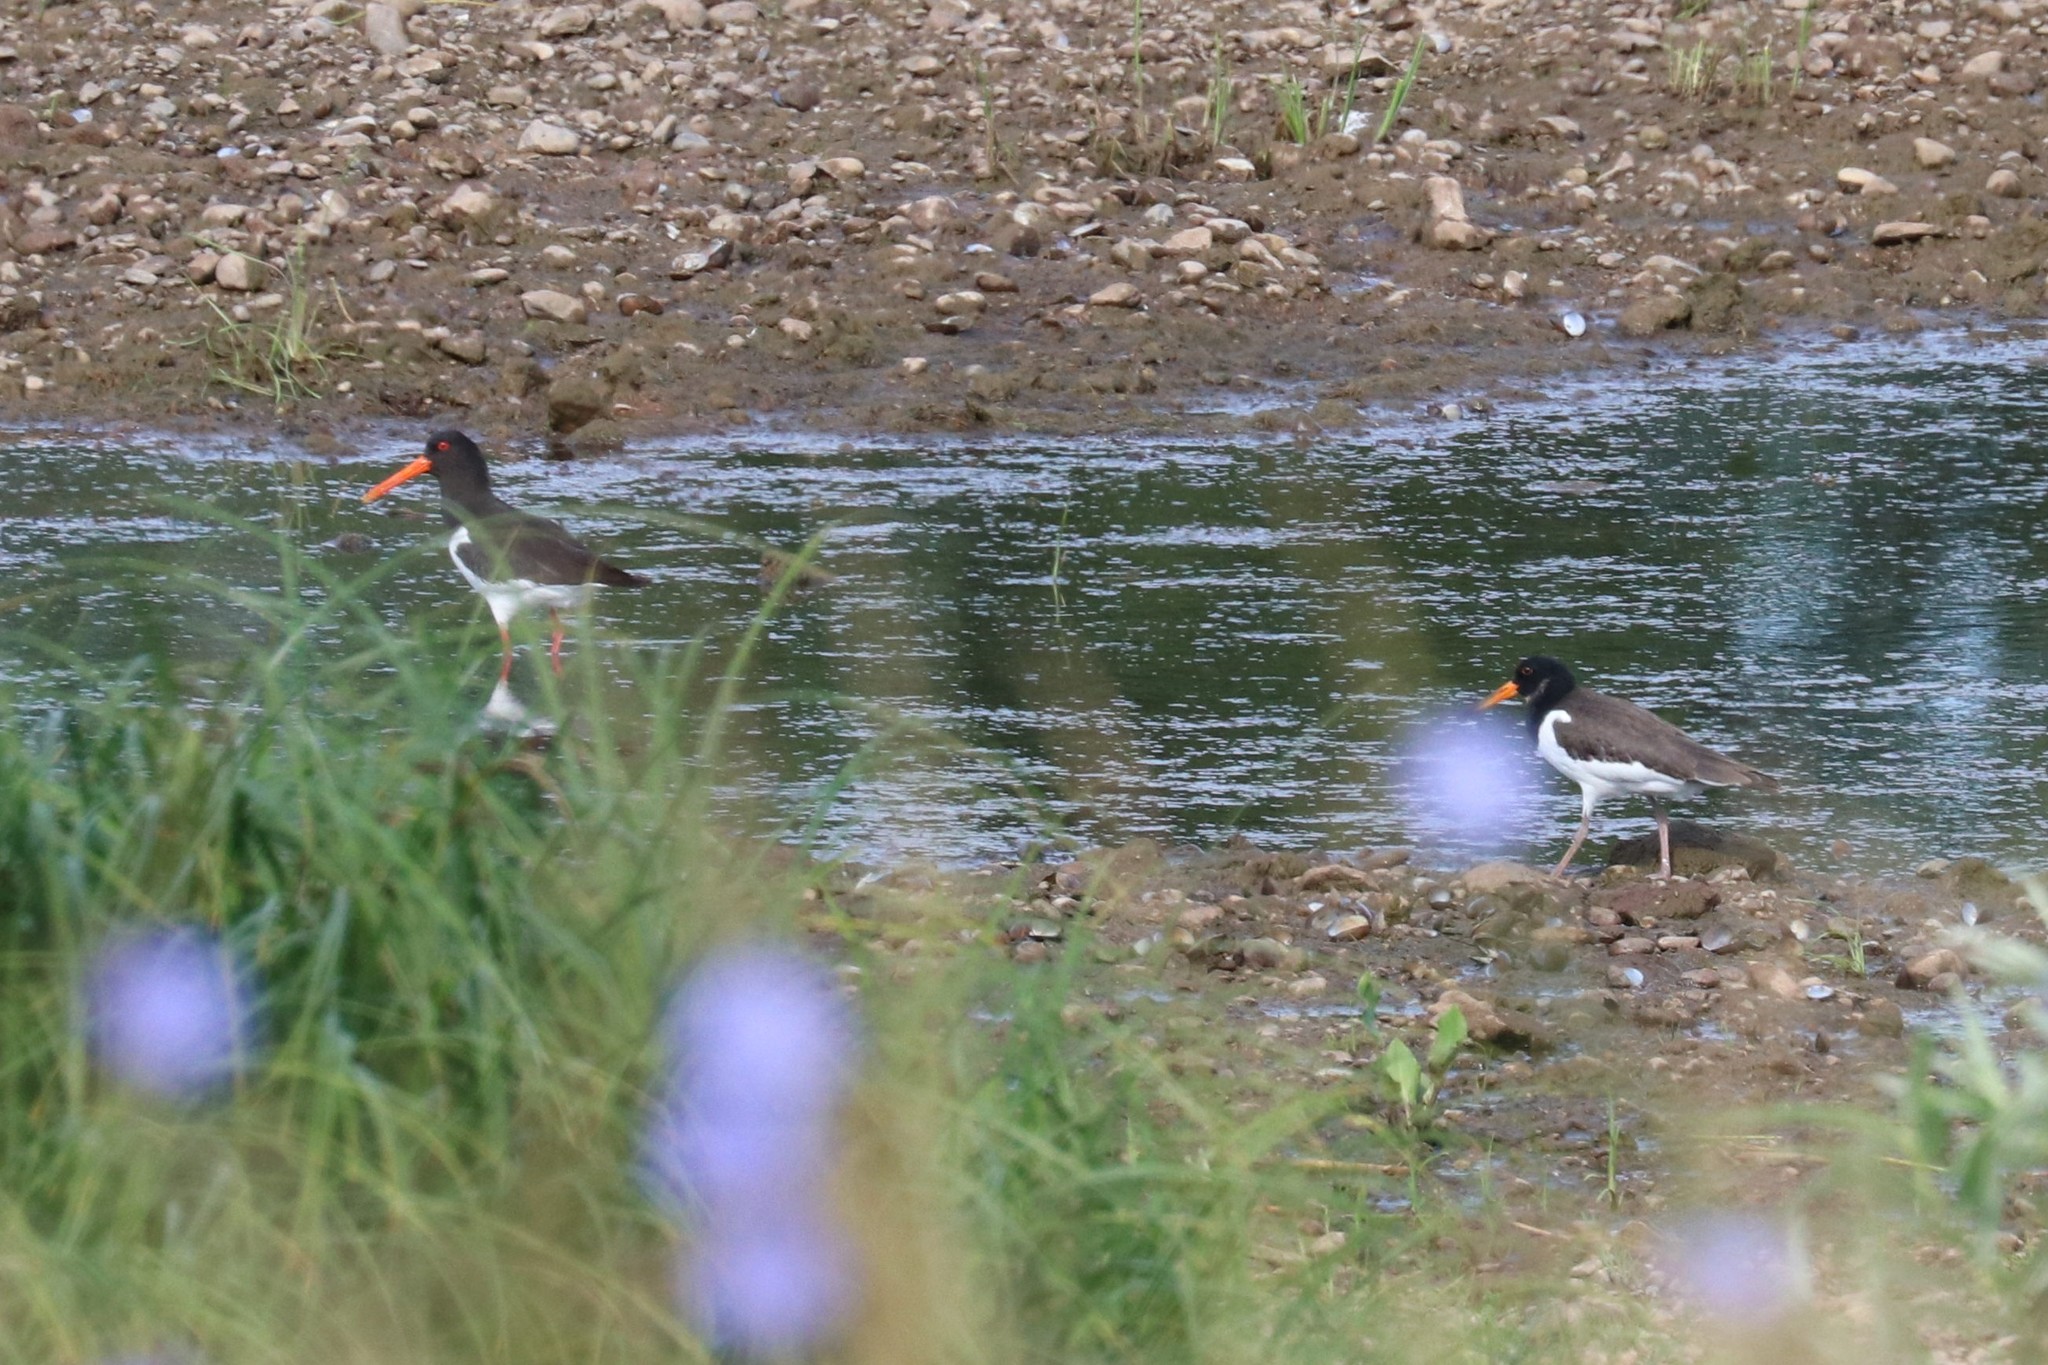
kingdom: Animalia
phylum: Chordata
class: Aves
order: Charadriiformes
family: Haematopodidae
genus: Haematopus
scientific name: Haematopus ostralegus
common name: Eurasian oystercatcher
